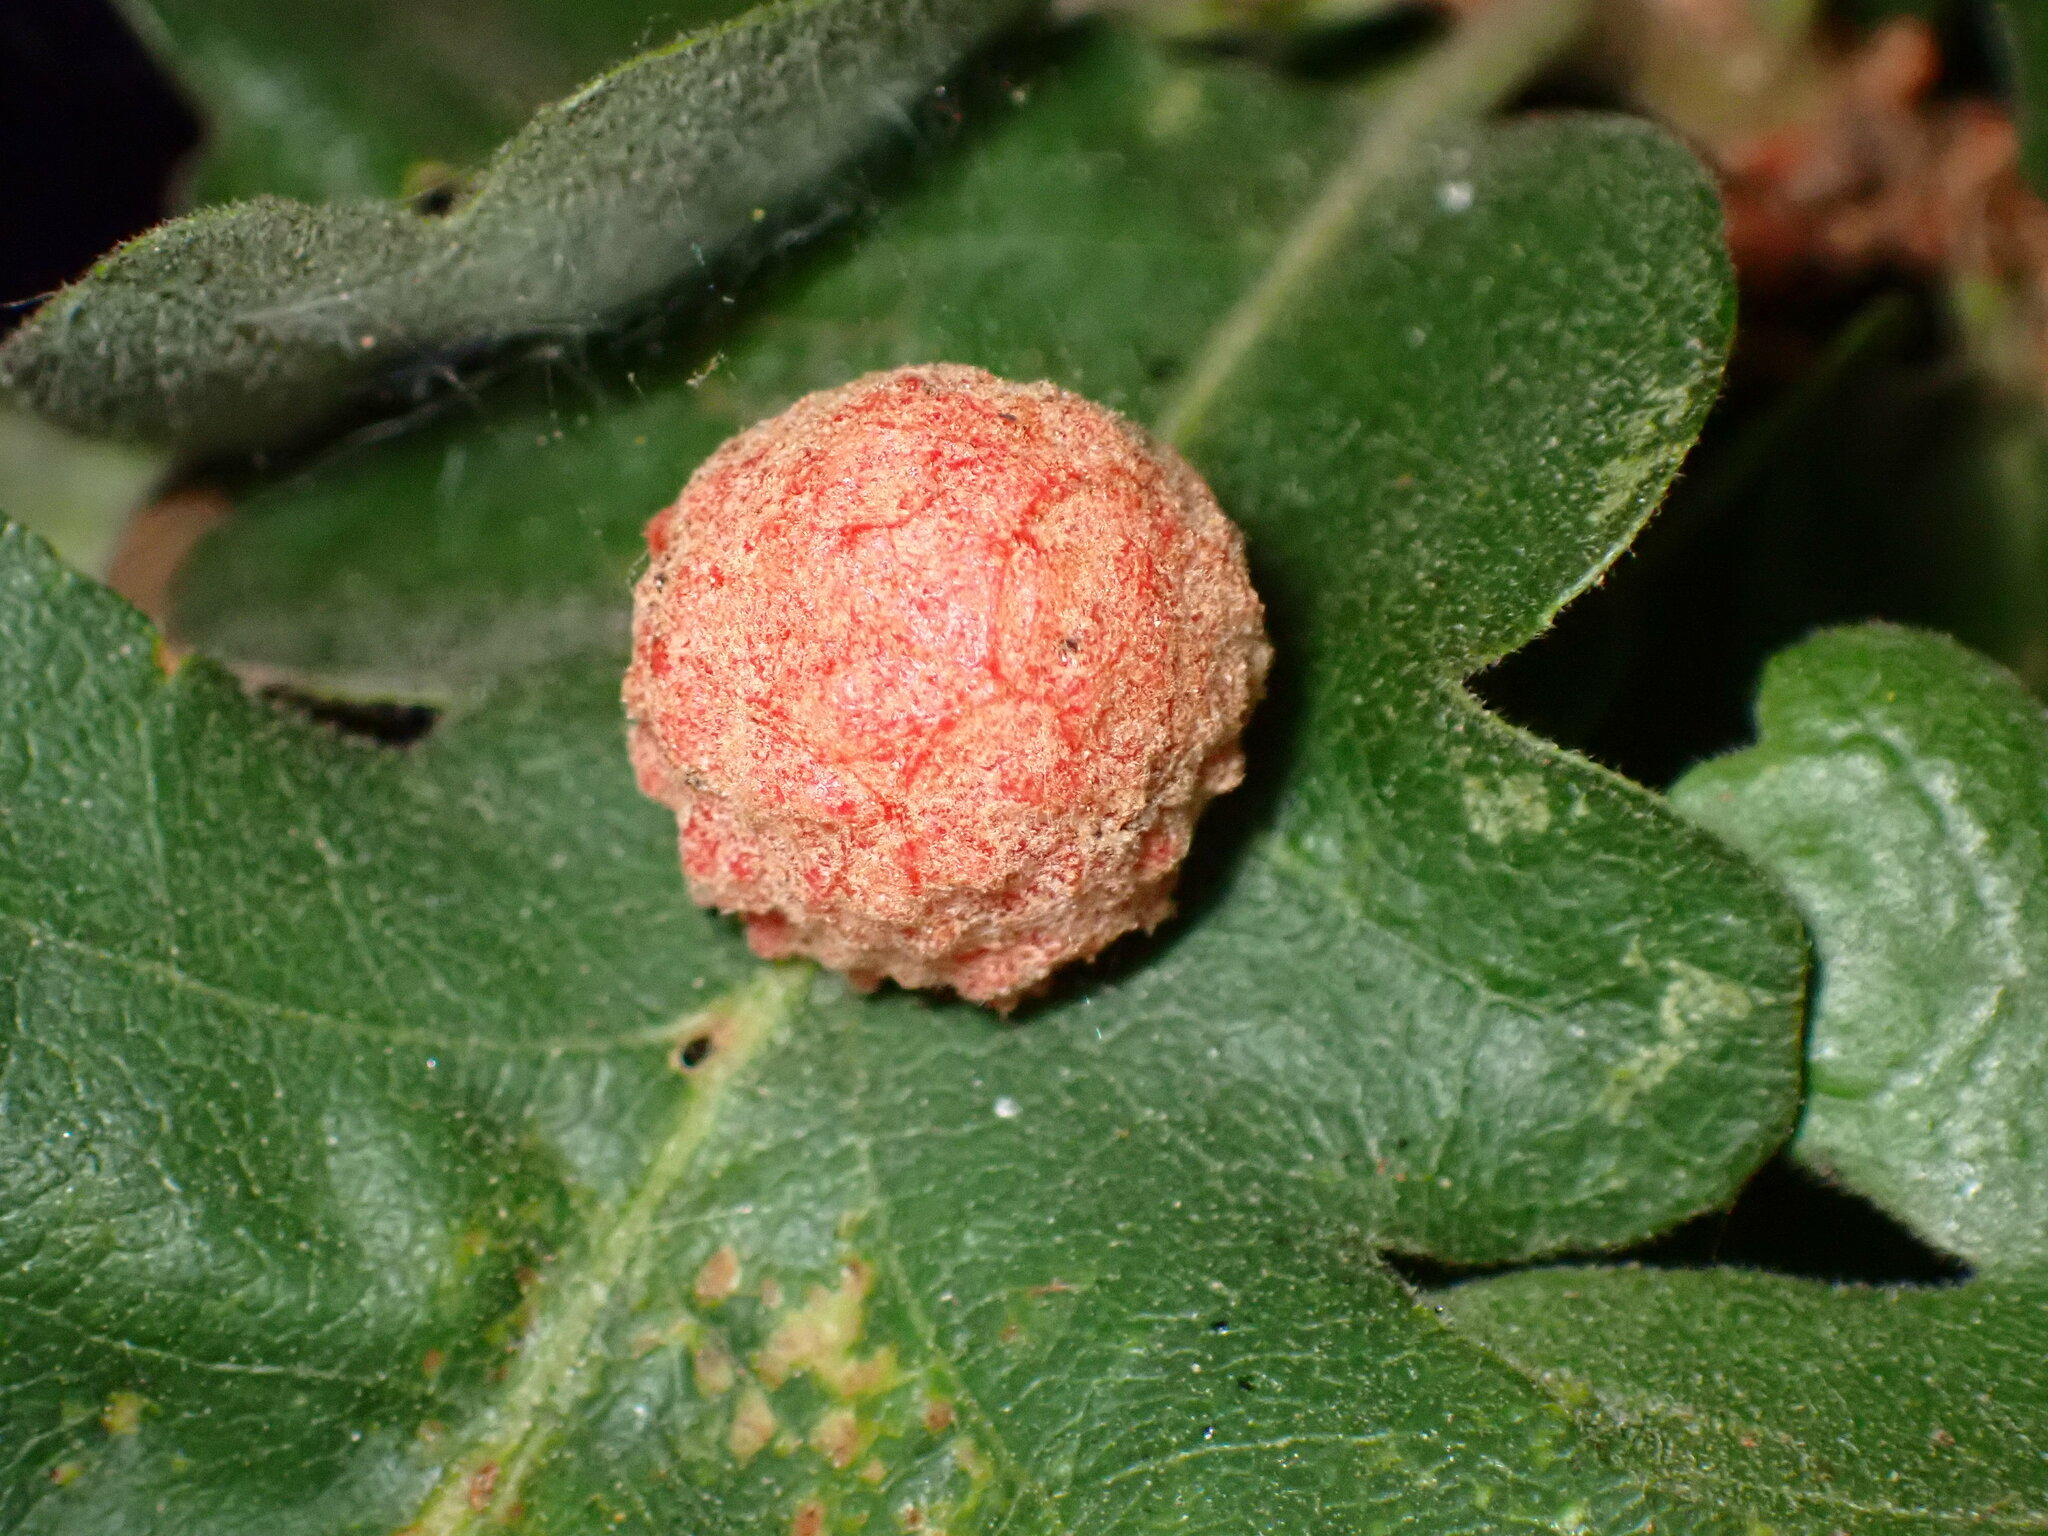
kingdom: Animalia
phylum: Arthropoda
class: Insecta
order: Hymenoptera
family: Cynipidae
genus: Cynips
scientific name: Cynips conspicua
